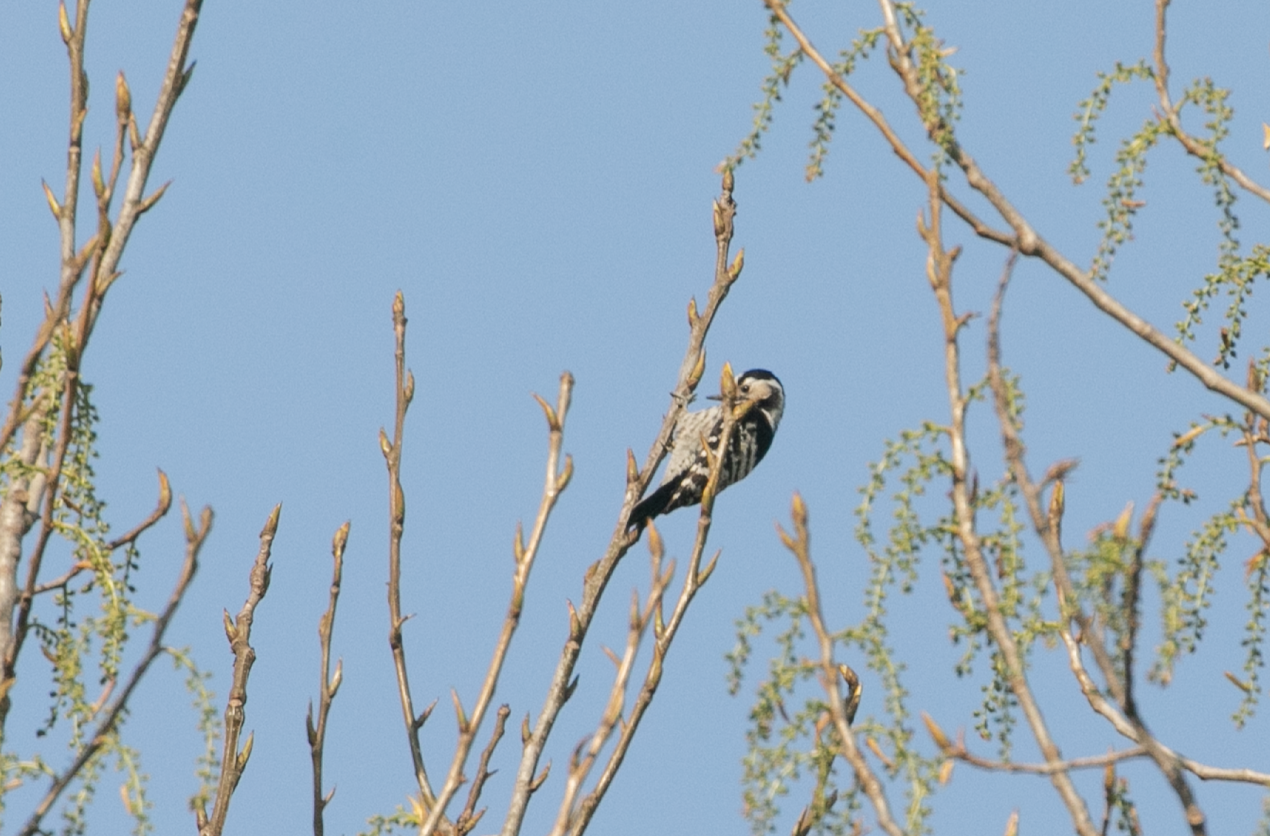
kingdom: Animalia
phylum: Chordata
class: Aves
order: Piciformes
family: Picidae
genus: Dryobates
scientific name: Dryobates minor
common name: Lesser spotted woodpecker
